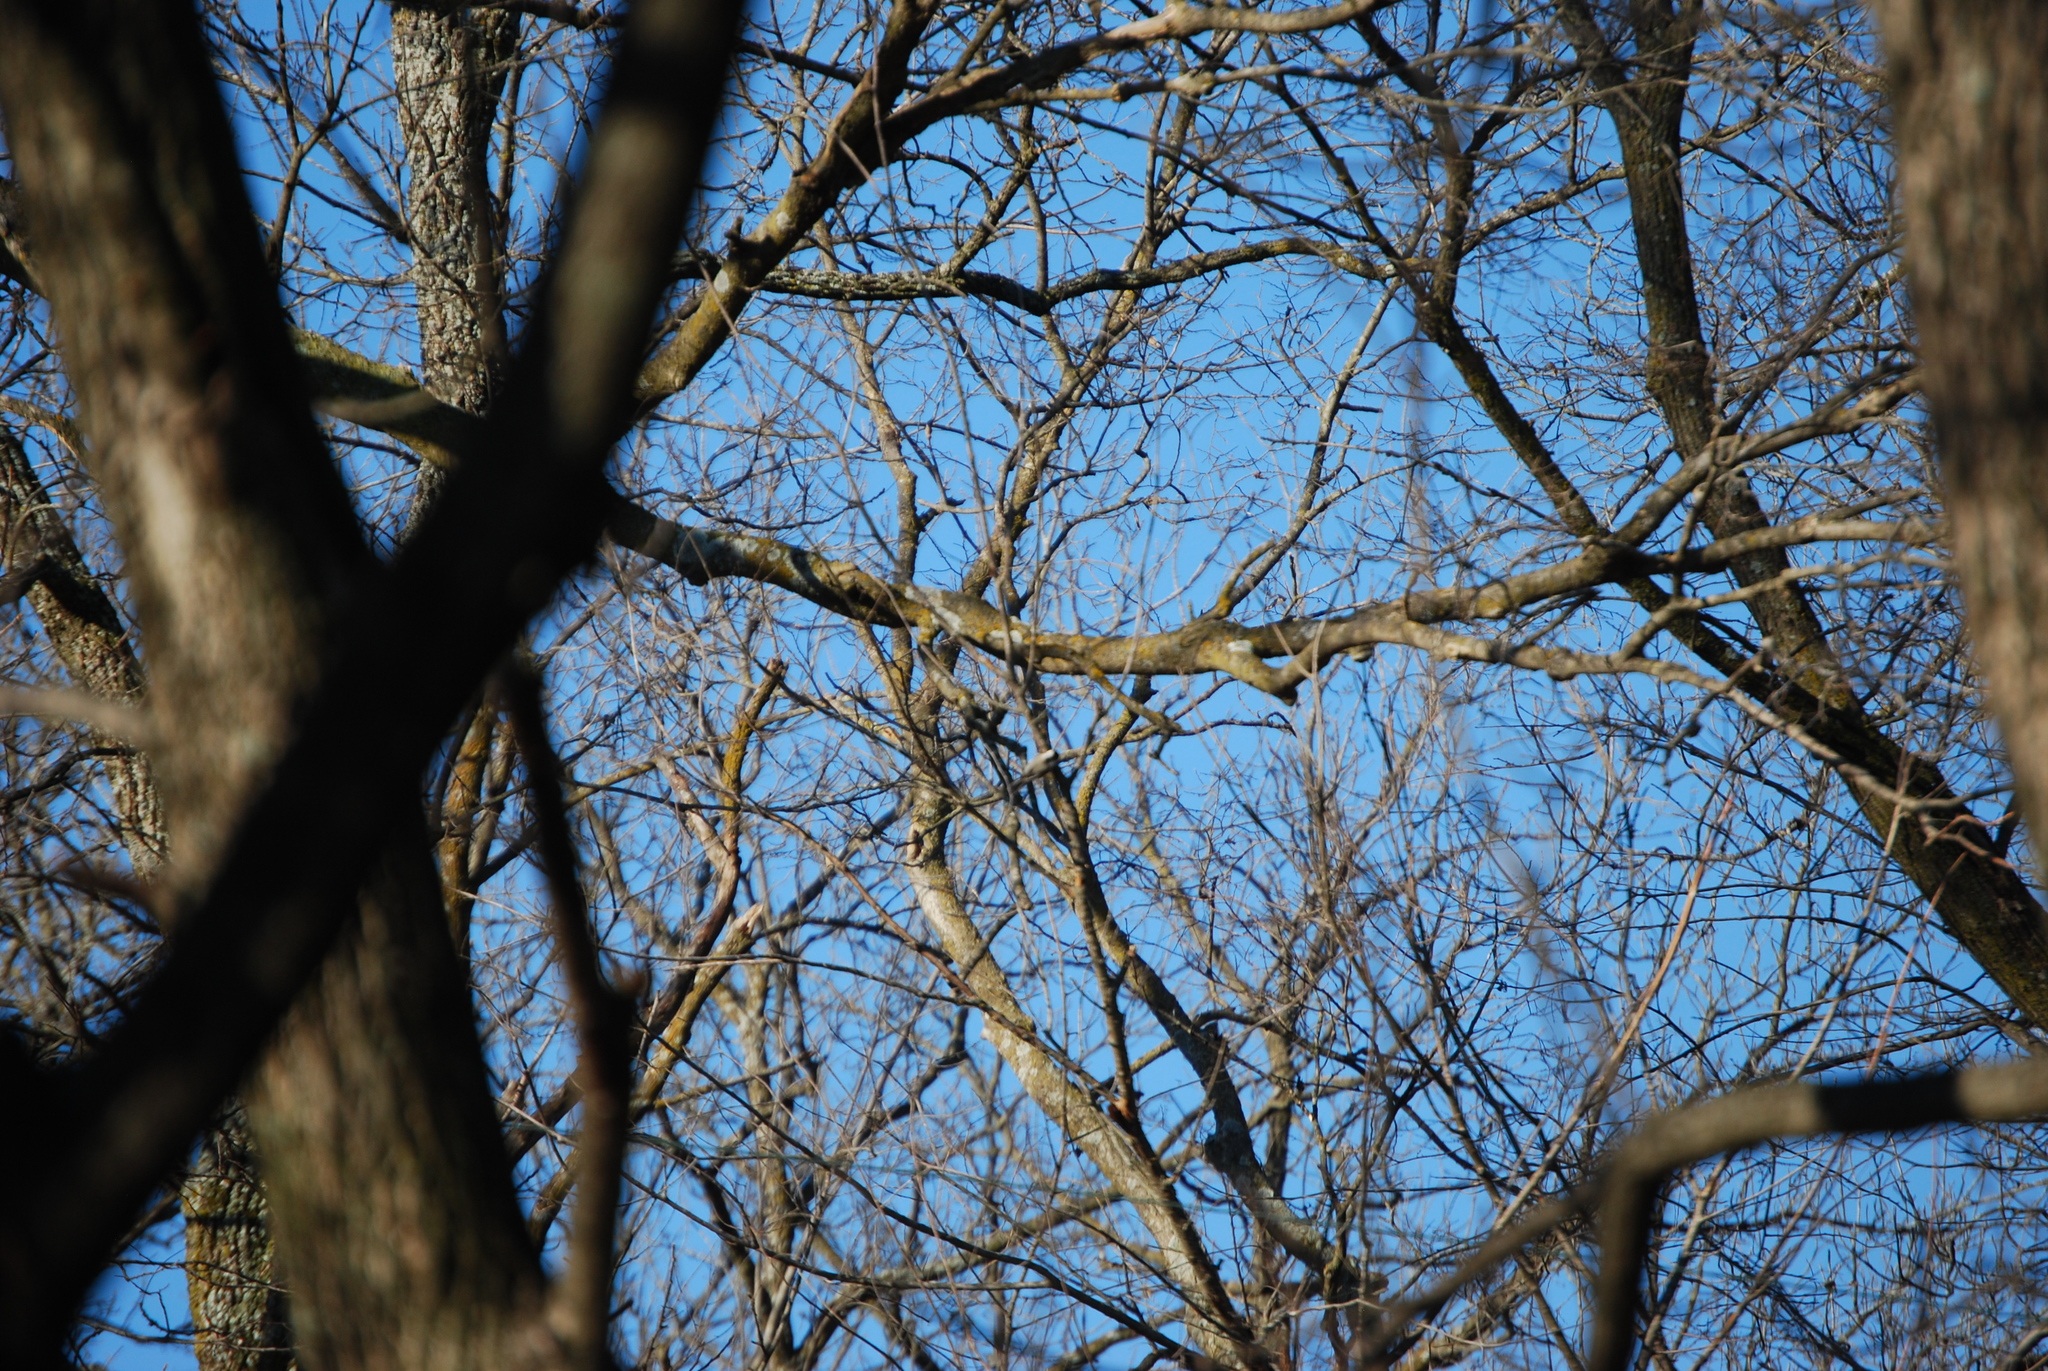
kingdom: Animalia
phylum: Chordata
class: Aves
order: Passeriformes
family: Paridae
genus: Poecile
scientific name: Poecile atricapillus
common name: Black-capped chickadee
